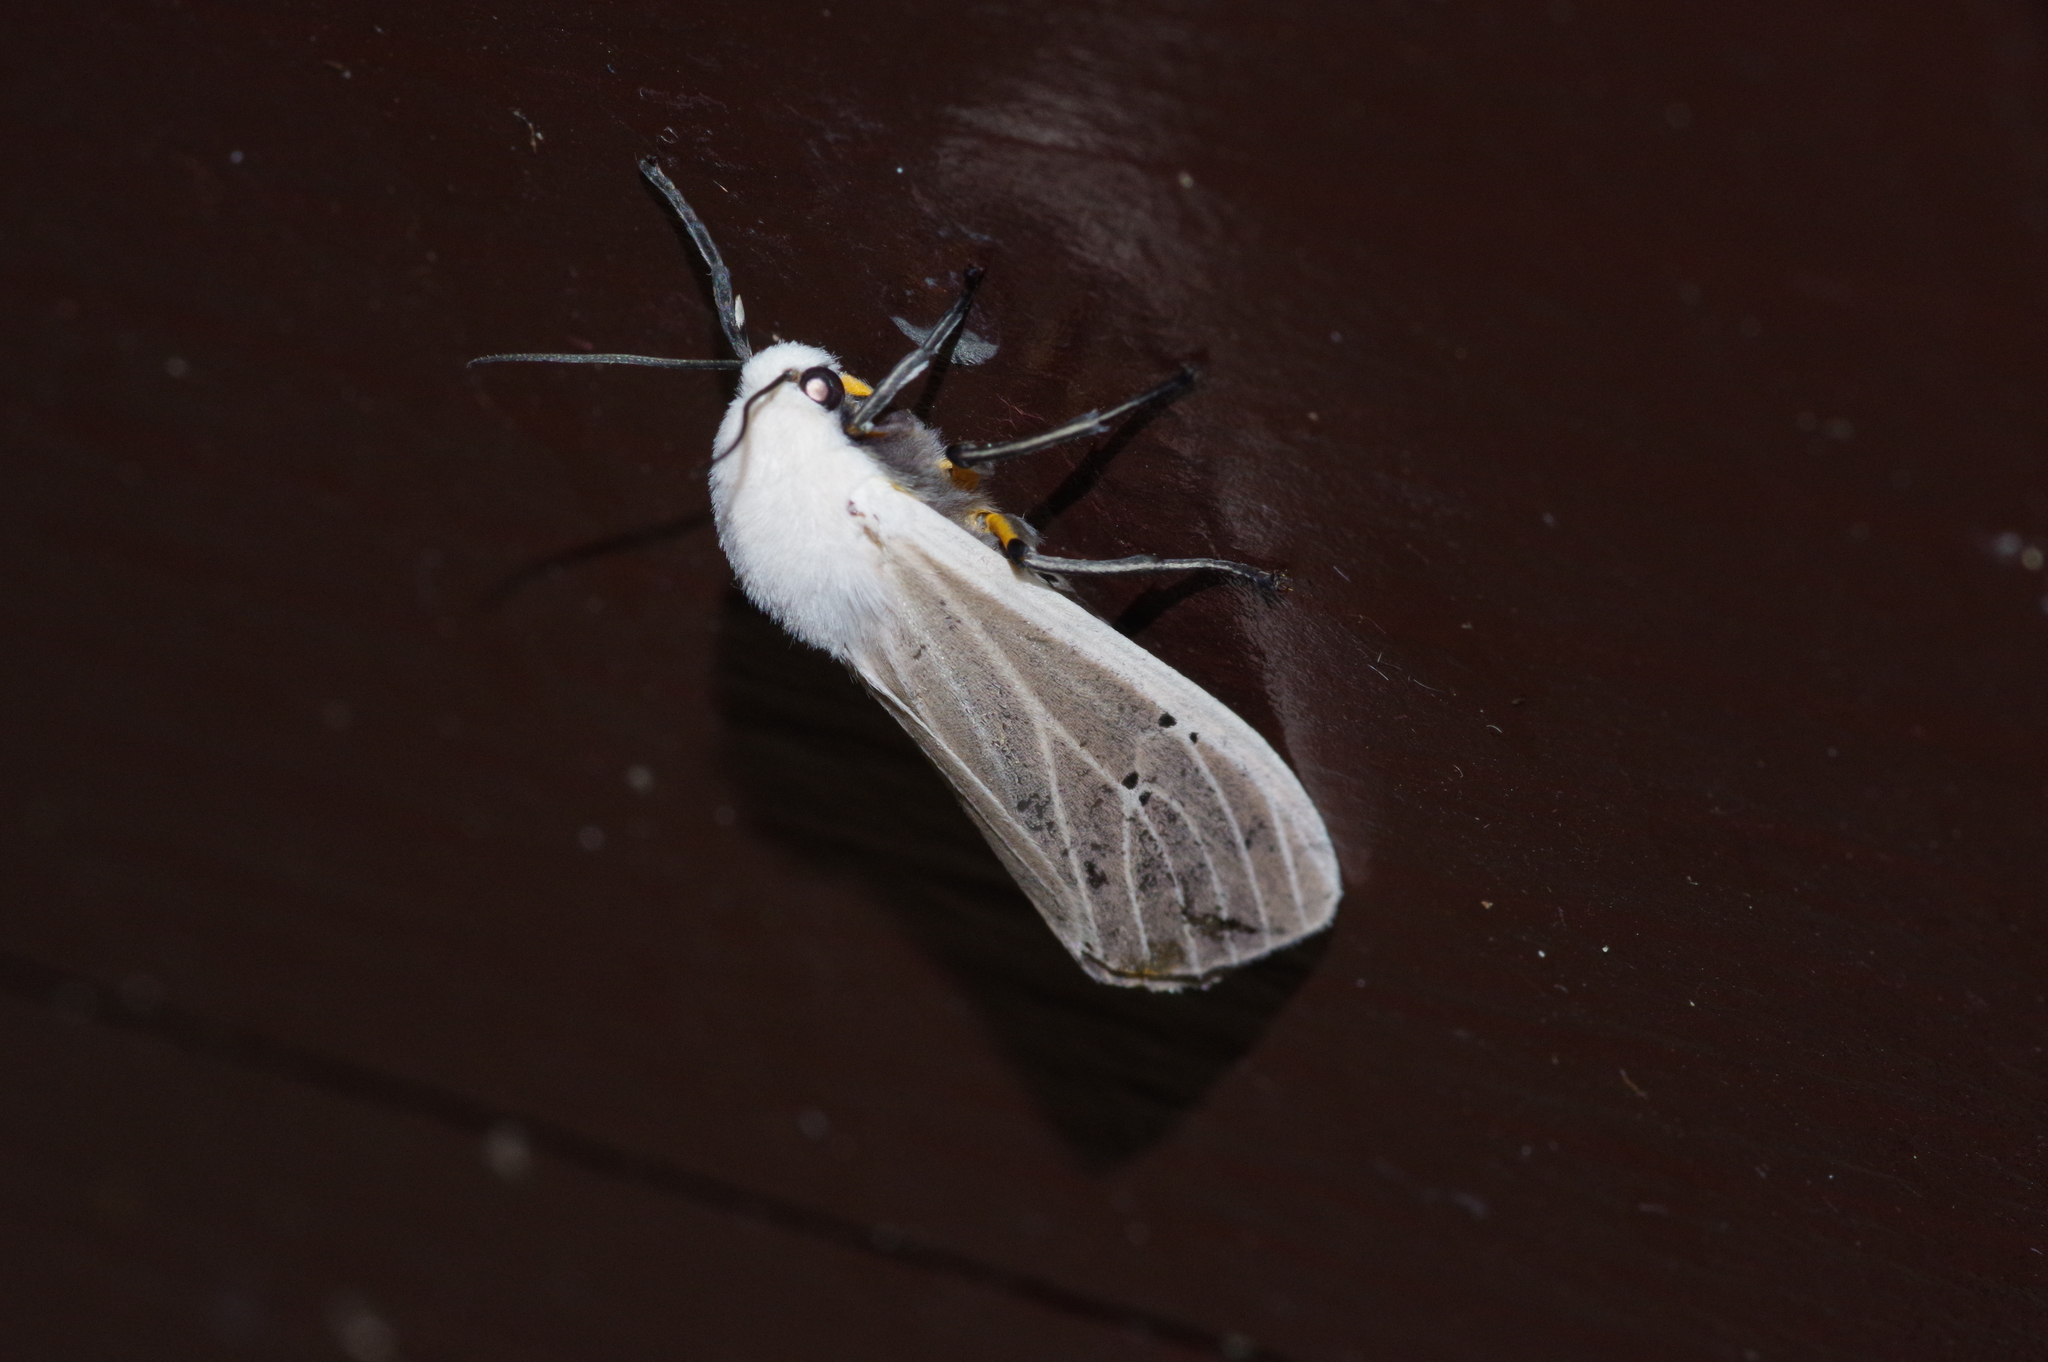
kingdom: Animalia
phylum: Arthropoda
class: Insecta
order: Lepidoptera
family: Erebidae
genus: Creatonotos
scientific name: Creatonotos transiens
